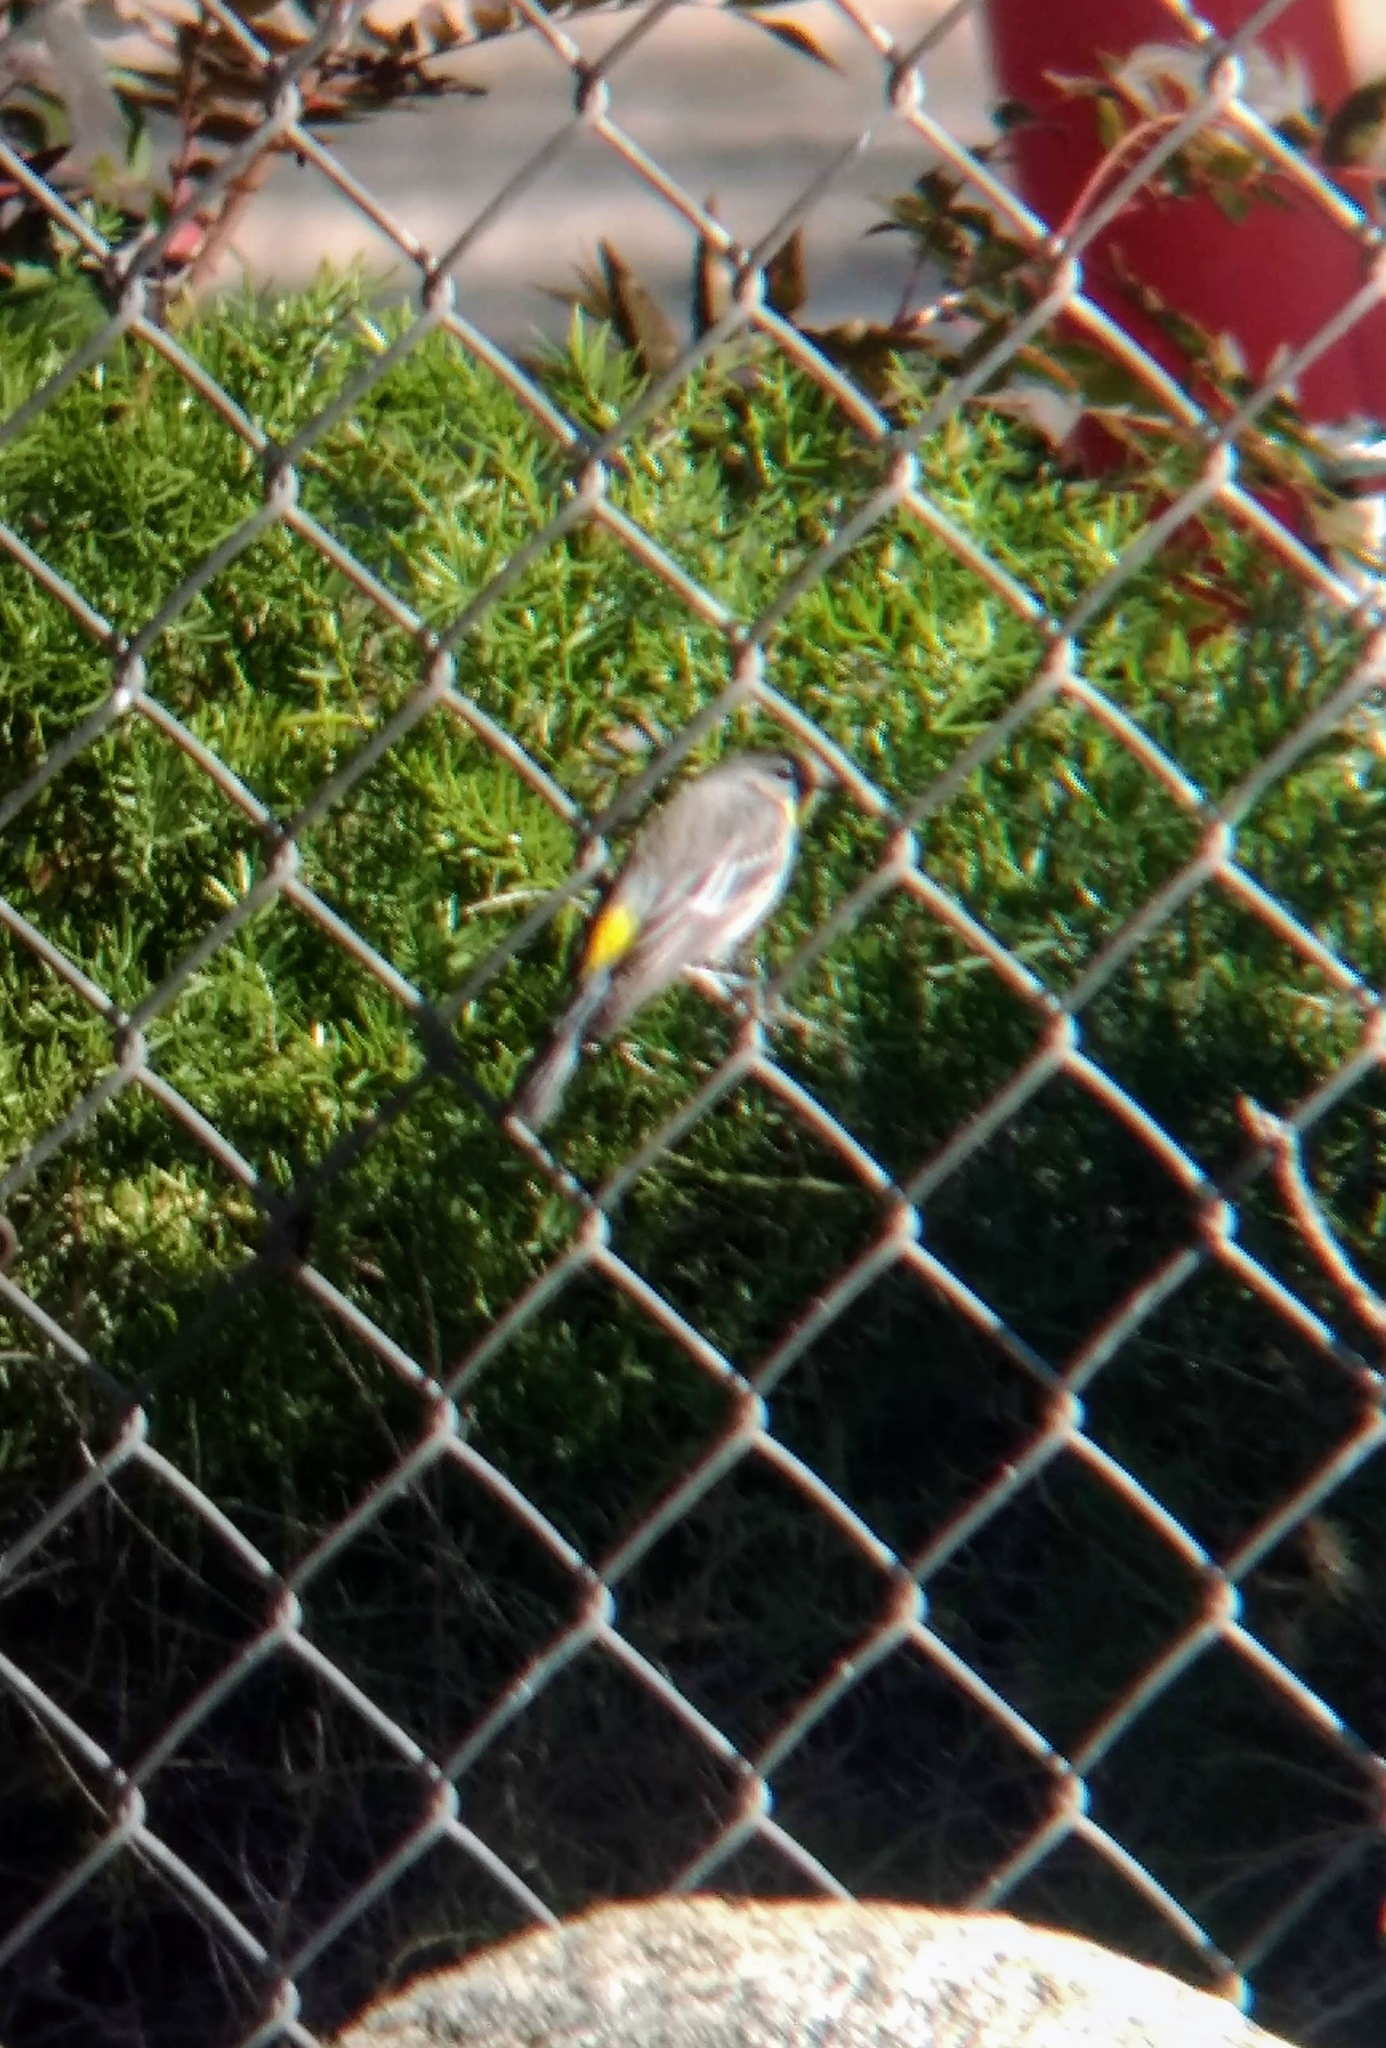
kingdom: Animalia
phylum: Chordata
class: Aves
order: Passeriformes
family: Parulidae
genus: Setophaga
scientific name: Setophaga coronata
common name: Myrtle warbler
